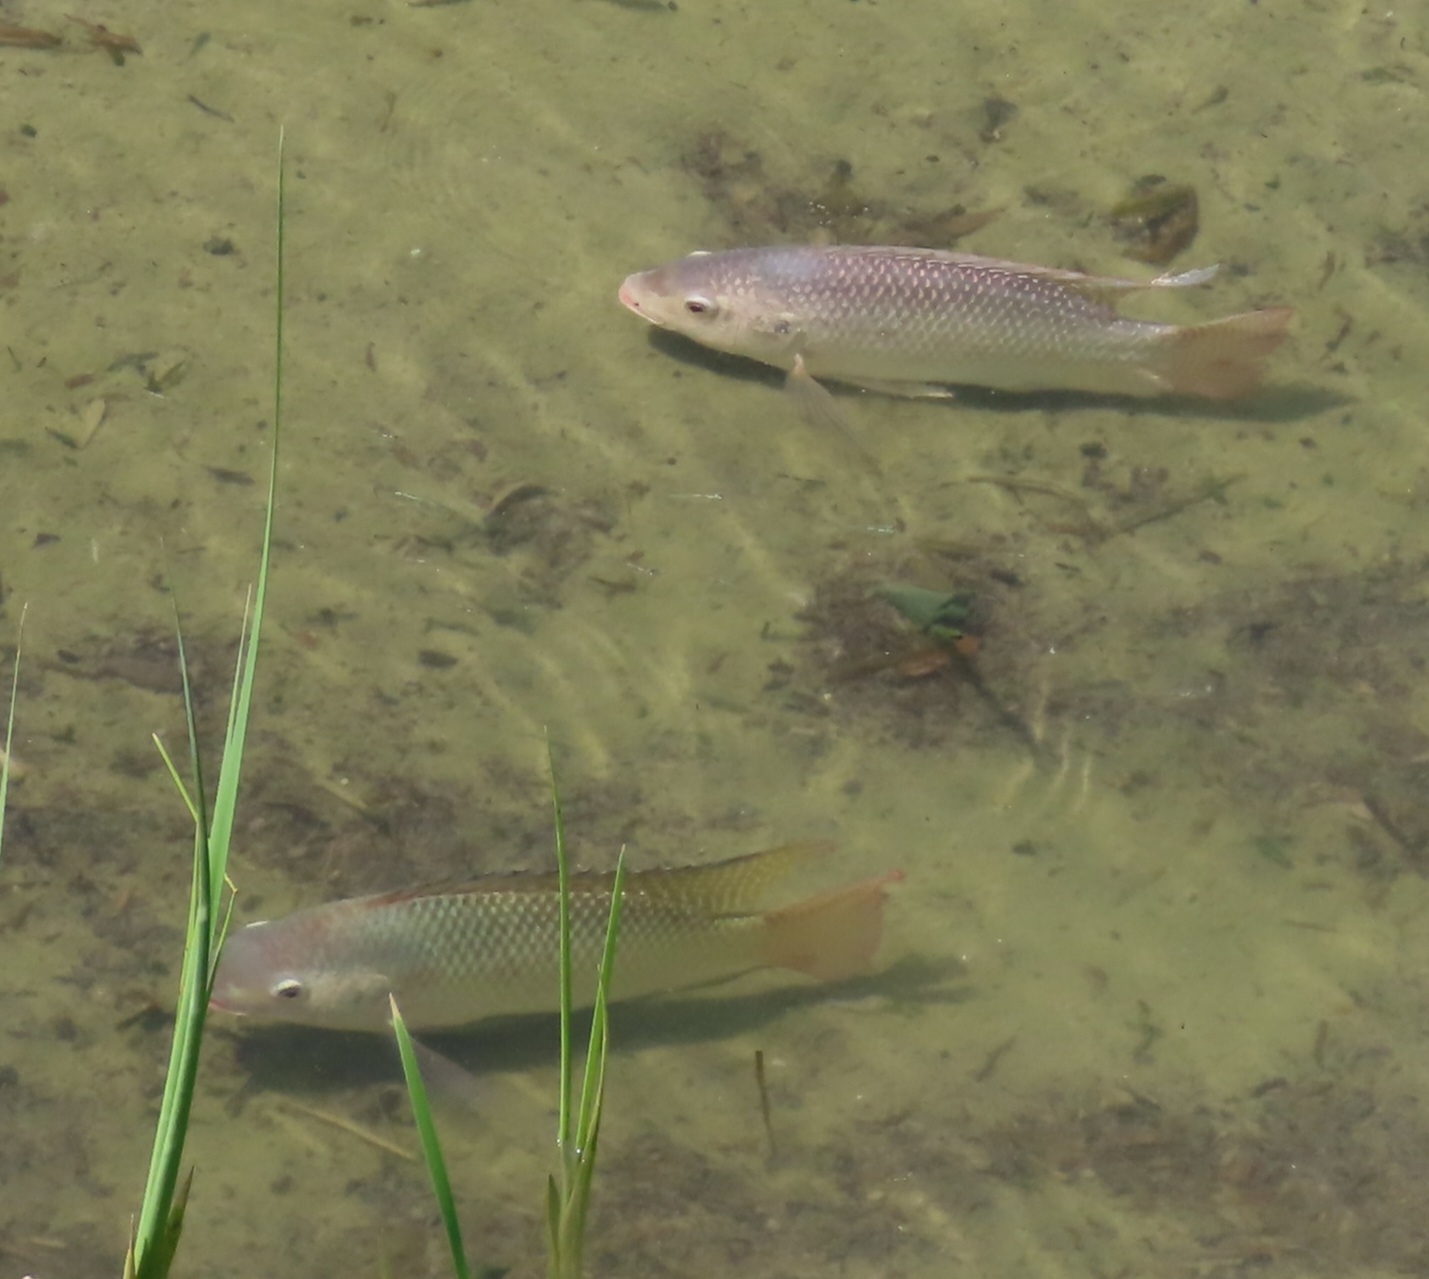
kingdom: Animalia
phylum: Chordata
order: Perciformes
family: Cichlidae
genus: Oreochromis
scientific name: Oreochromis niloticus
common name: Nile tilapia
